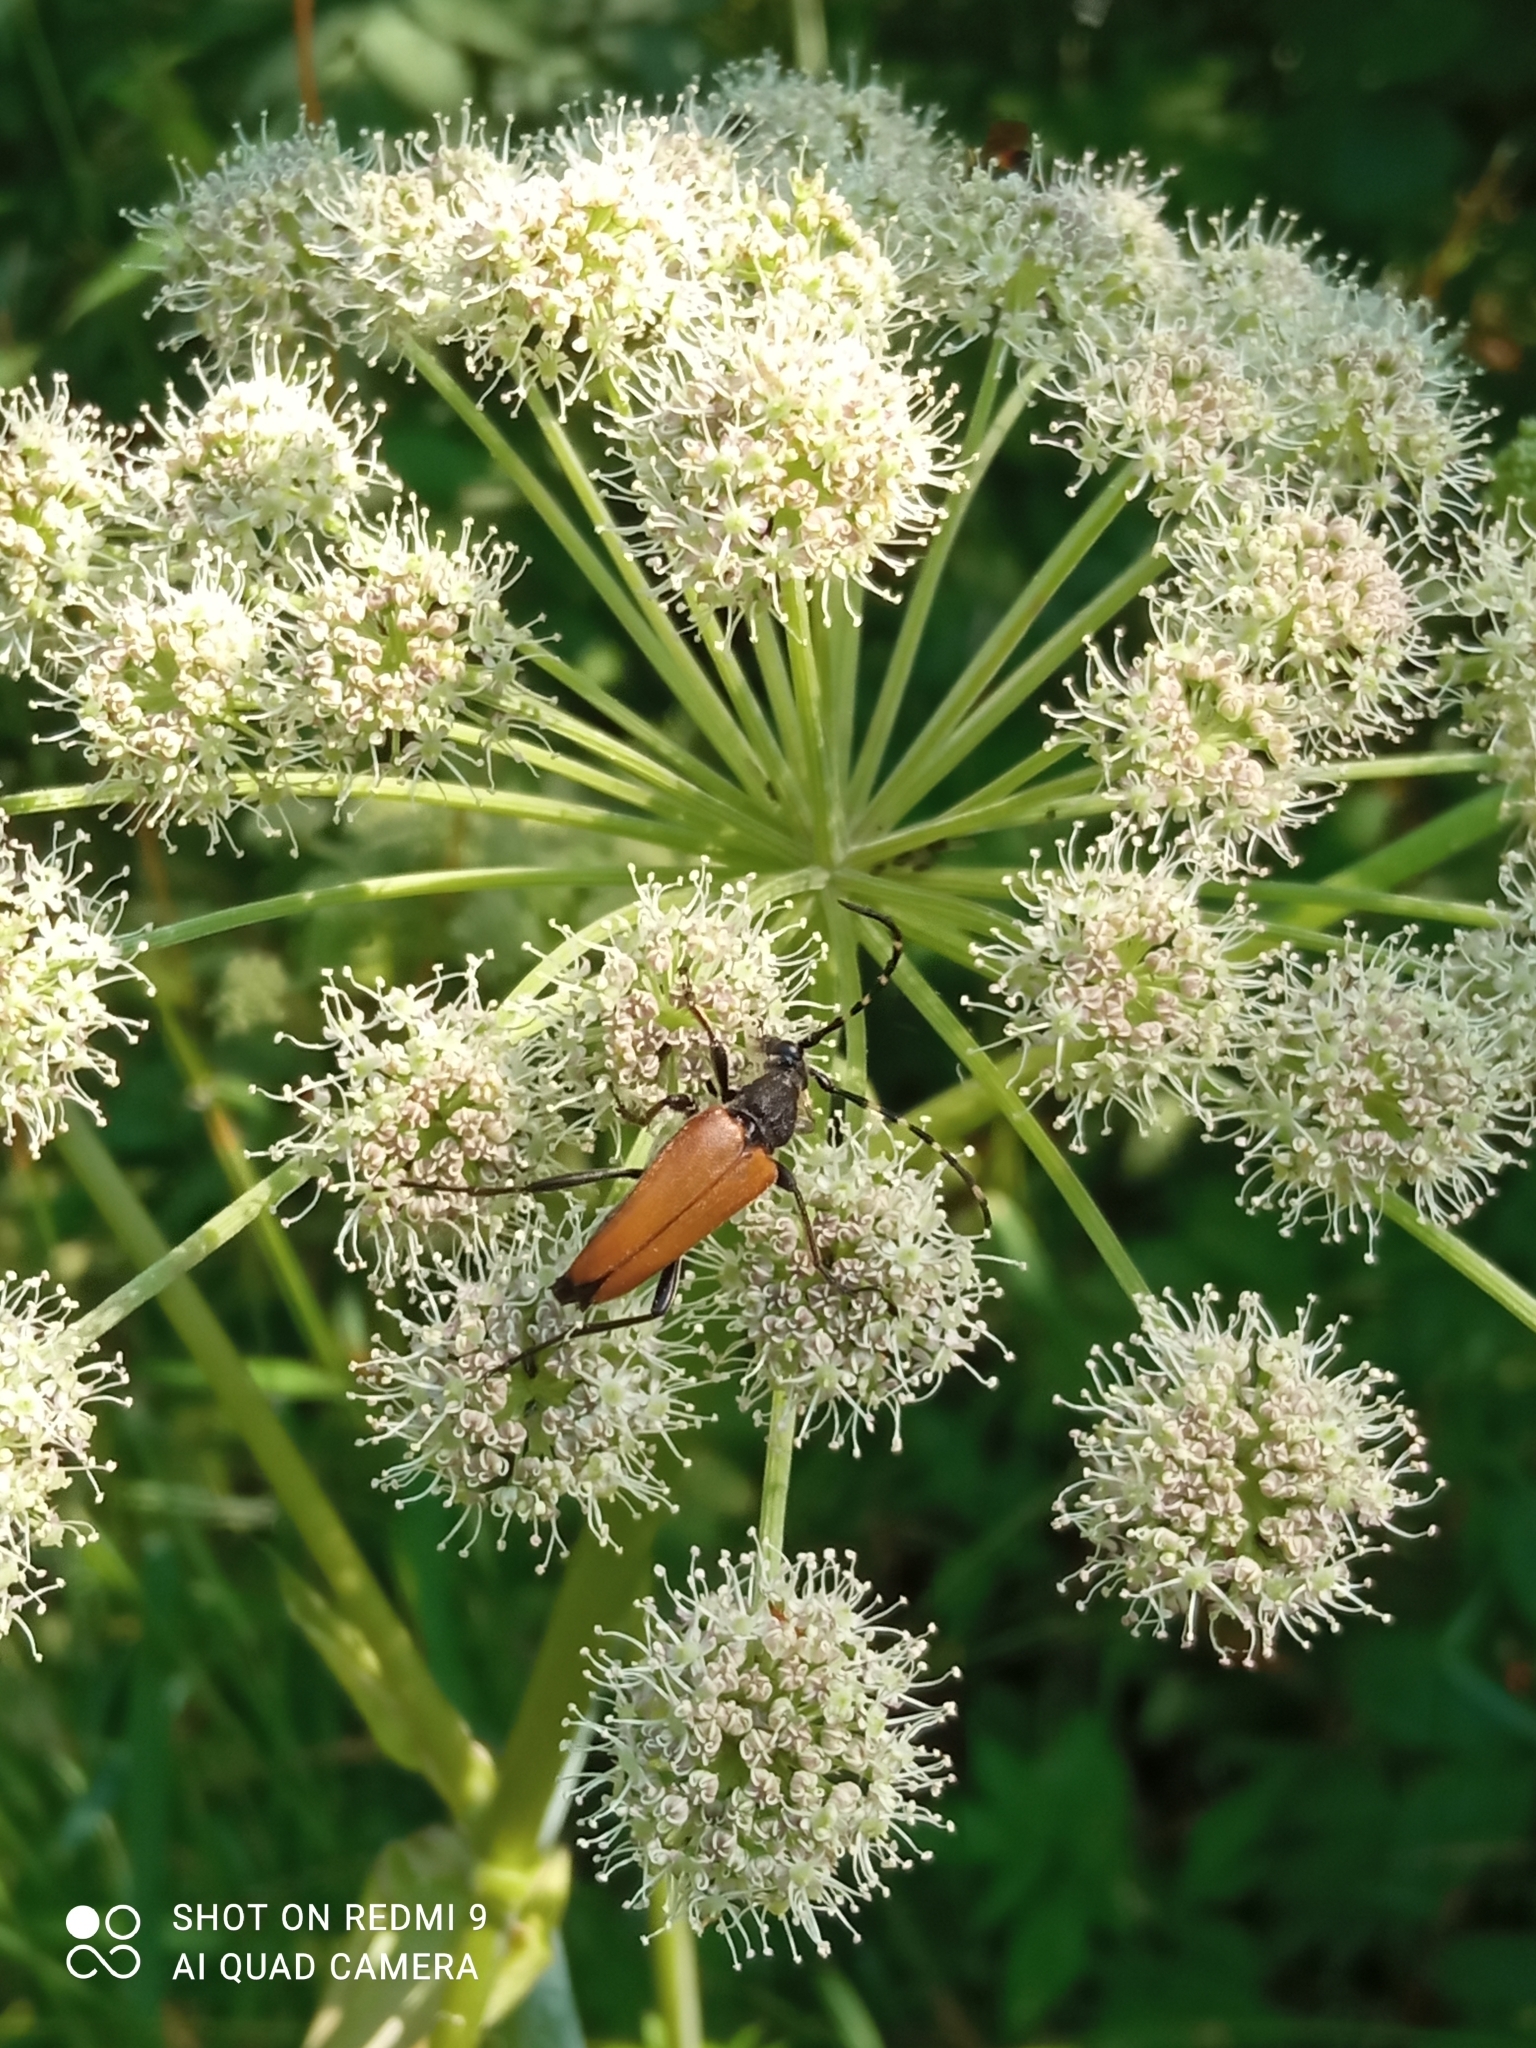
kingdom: Animalia
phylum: Arthropoda
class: Insecta
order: Coleoptera
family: Cerambycidae
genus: Stictoleptura
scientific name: Stictoleptura variicornis
